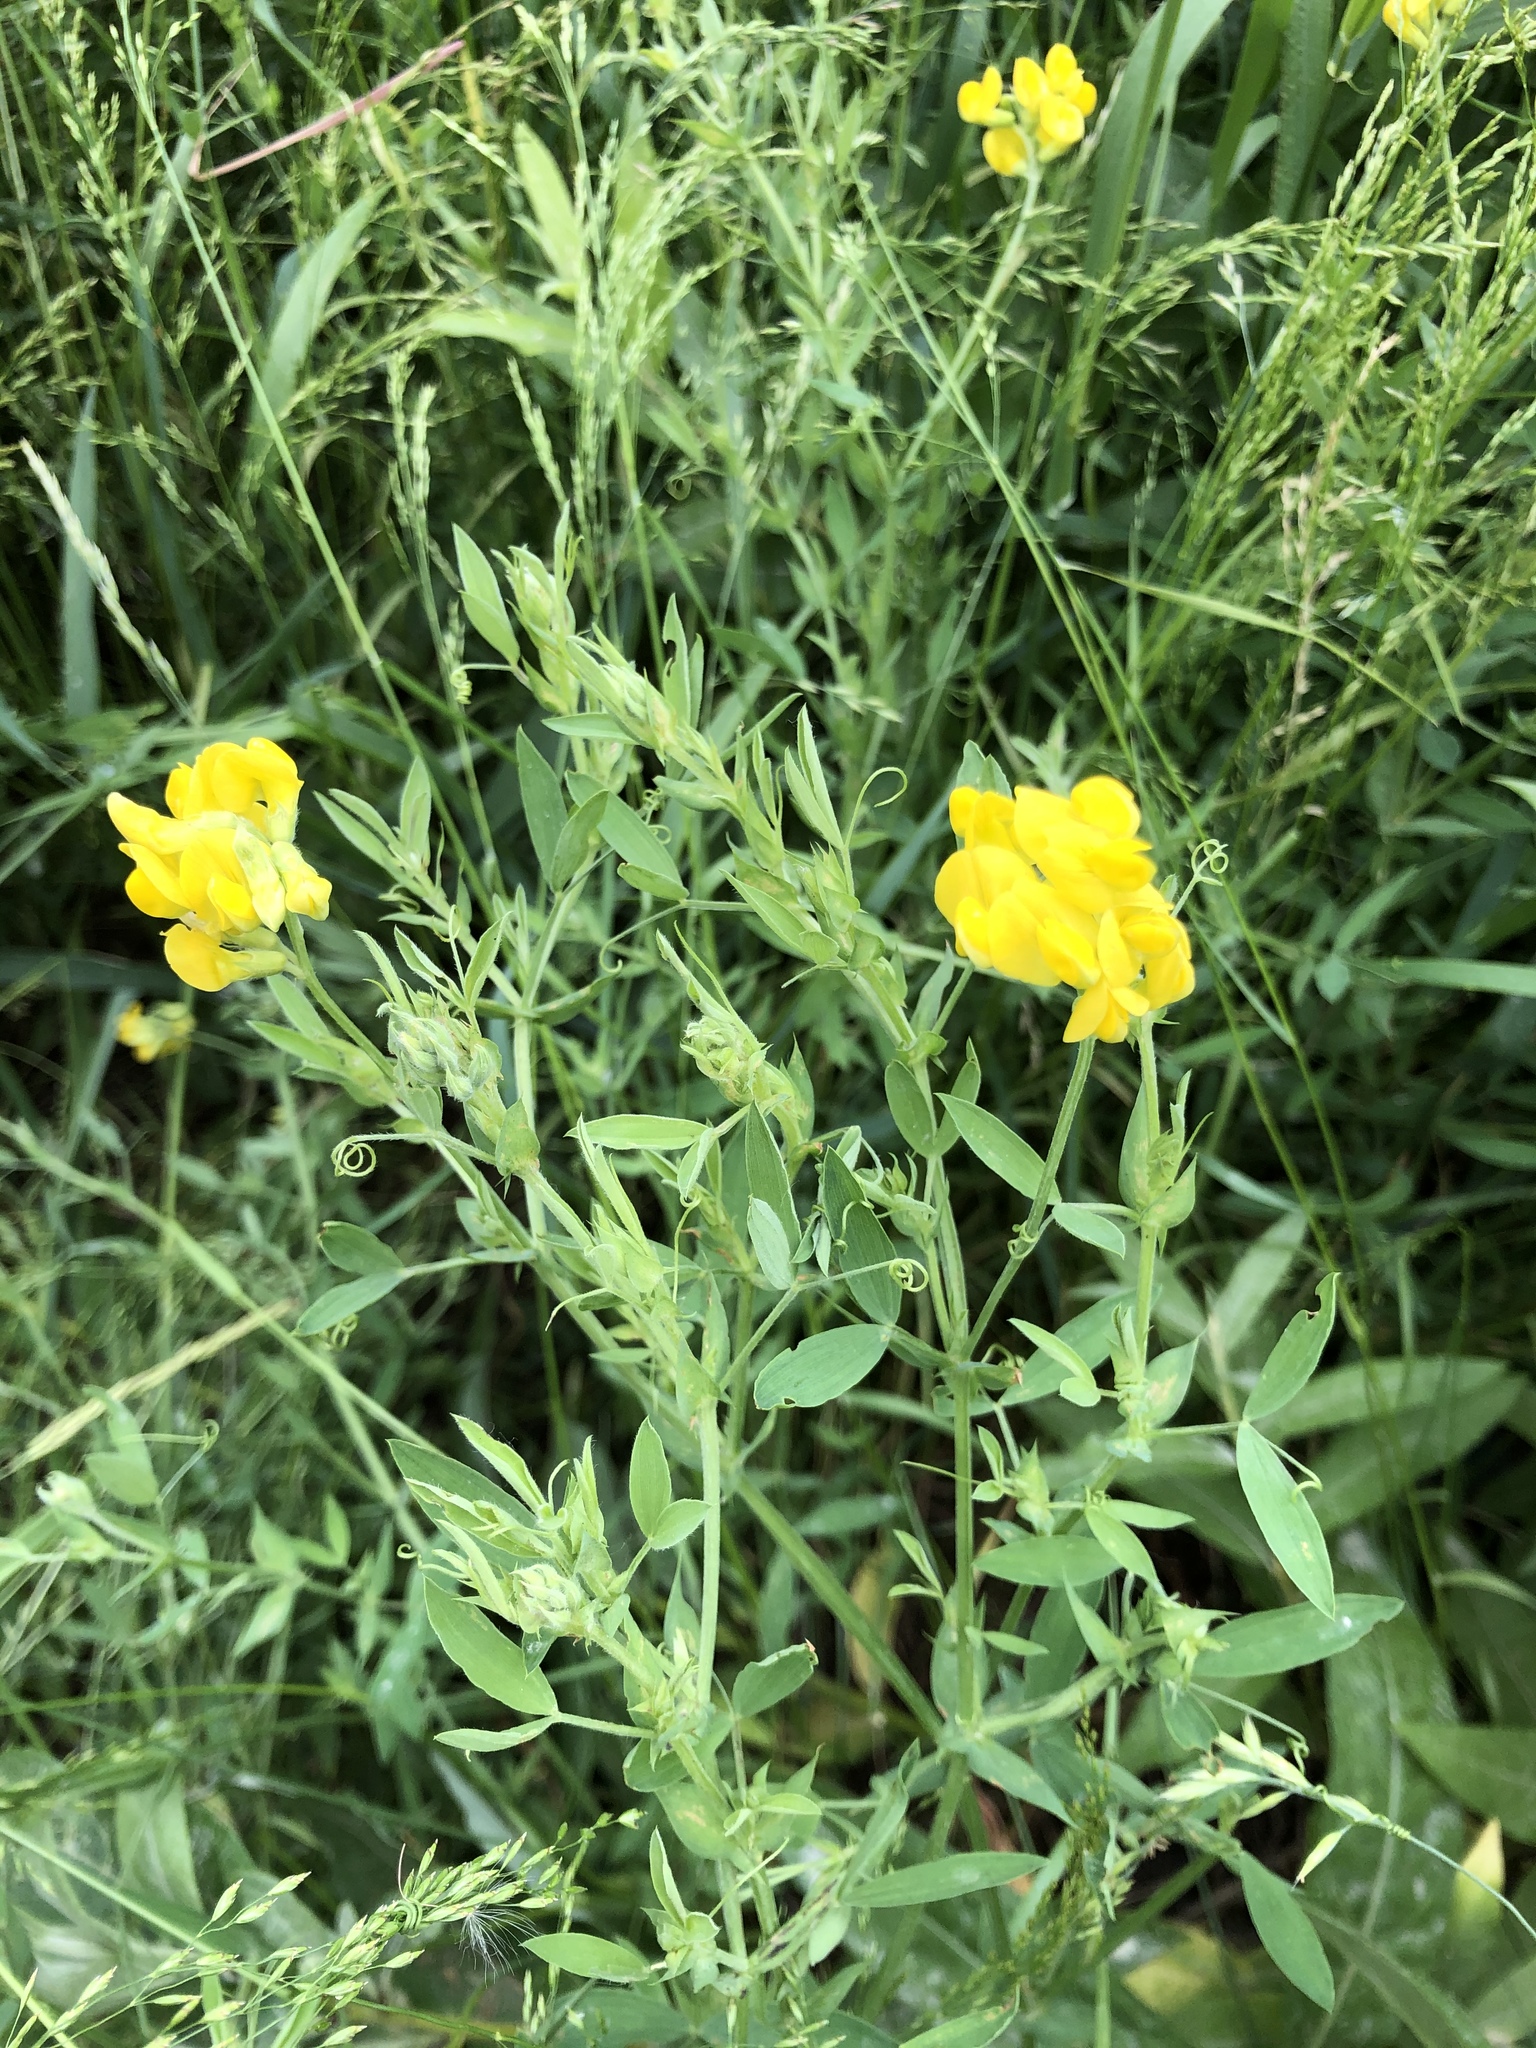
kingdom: Plantae
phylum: Tracheophyta
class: Magnoliopsida
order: Fabales
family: Fabaceae
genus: Lathyrus
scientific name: Lathyrus pratensis
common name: Meadow vetchling
